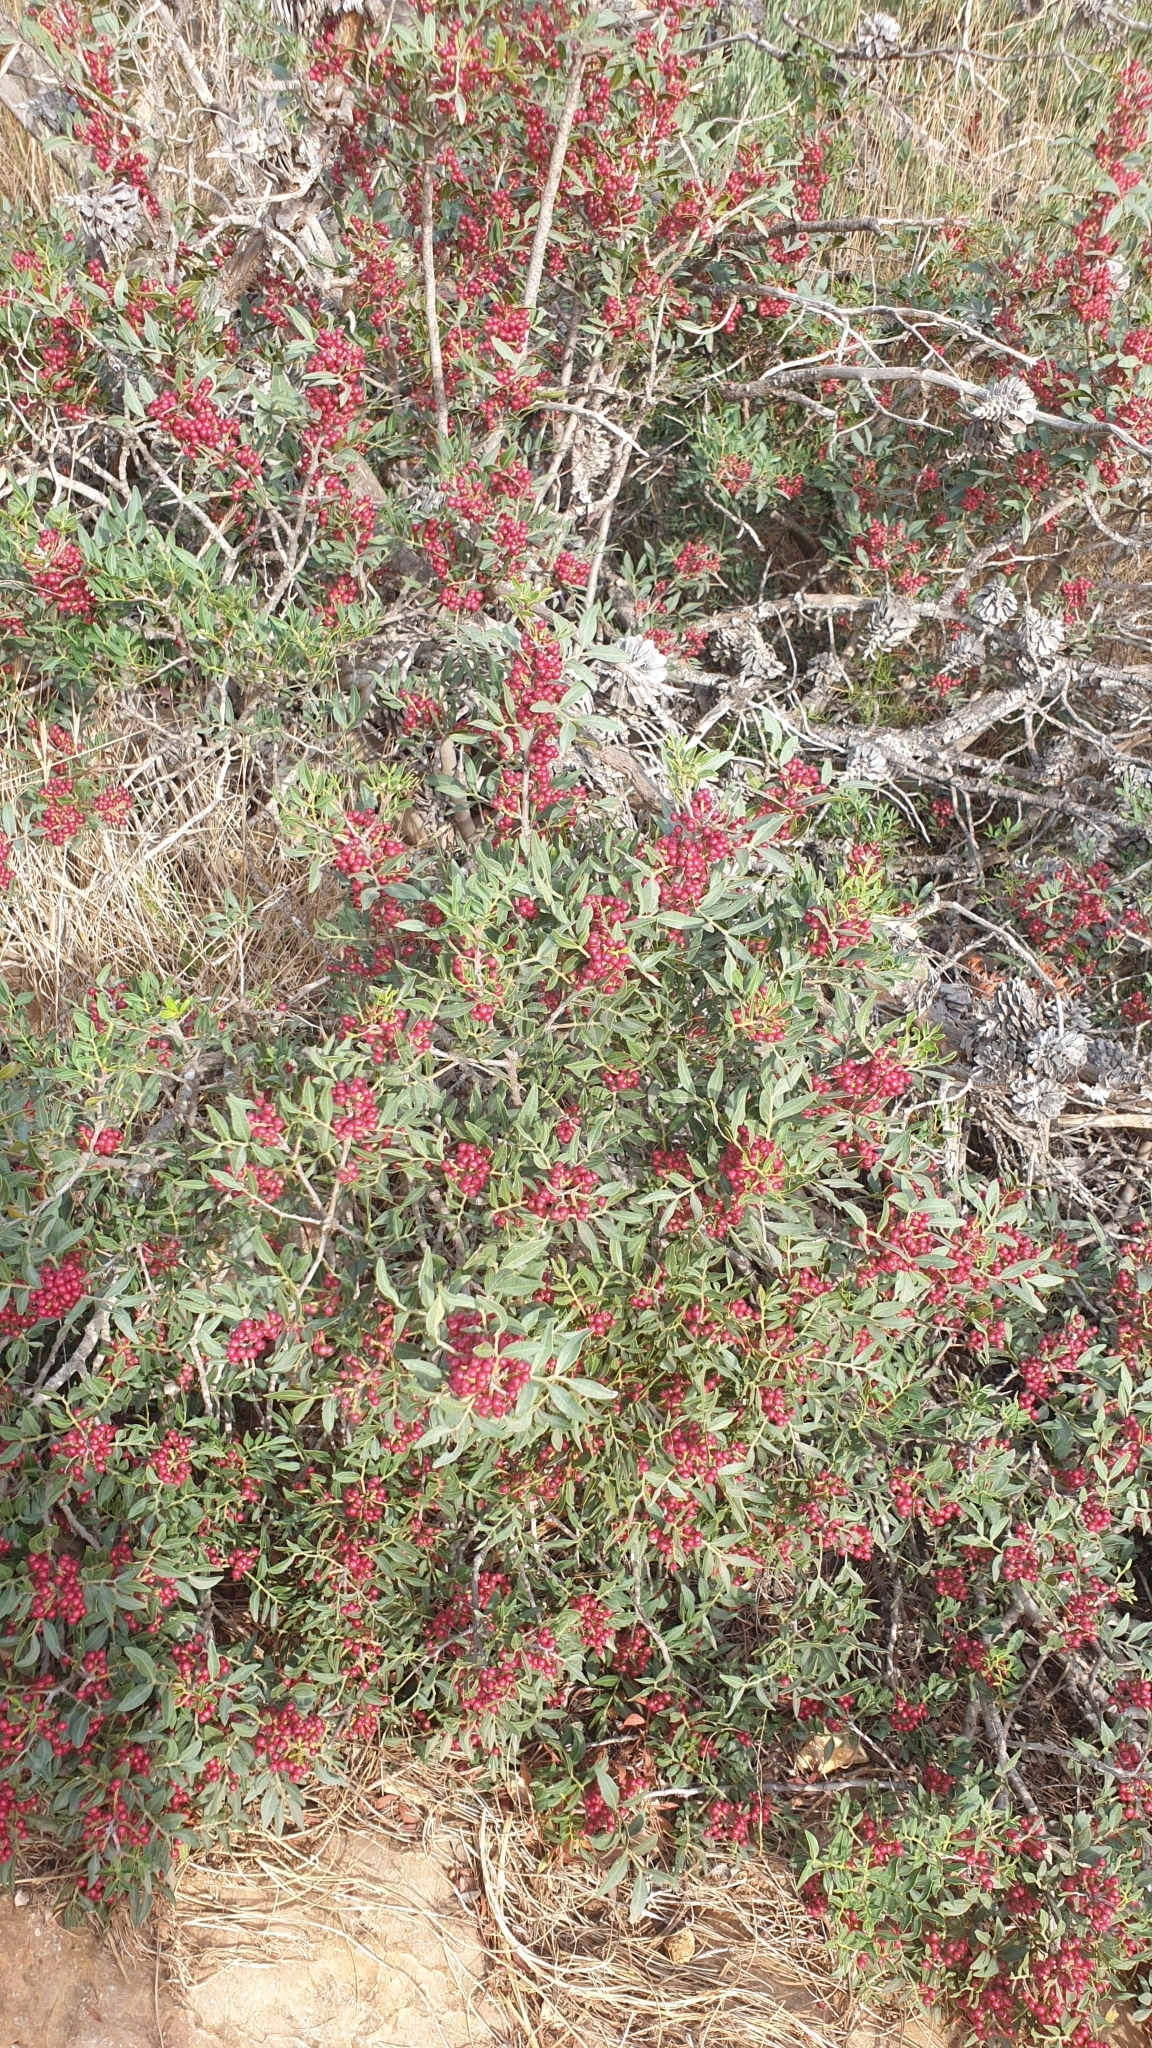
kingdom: Plantae
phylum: Tracheophyta
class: Magnoliopsida
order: Sapindales
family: Anacardiaceae
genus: Pistacia
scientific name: Pistacia lentiscus
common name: Lentisk
